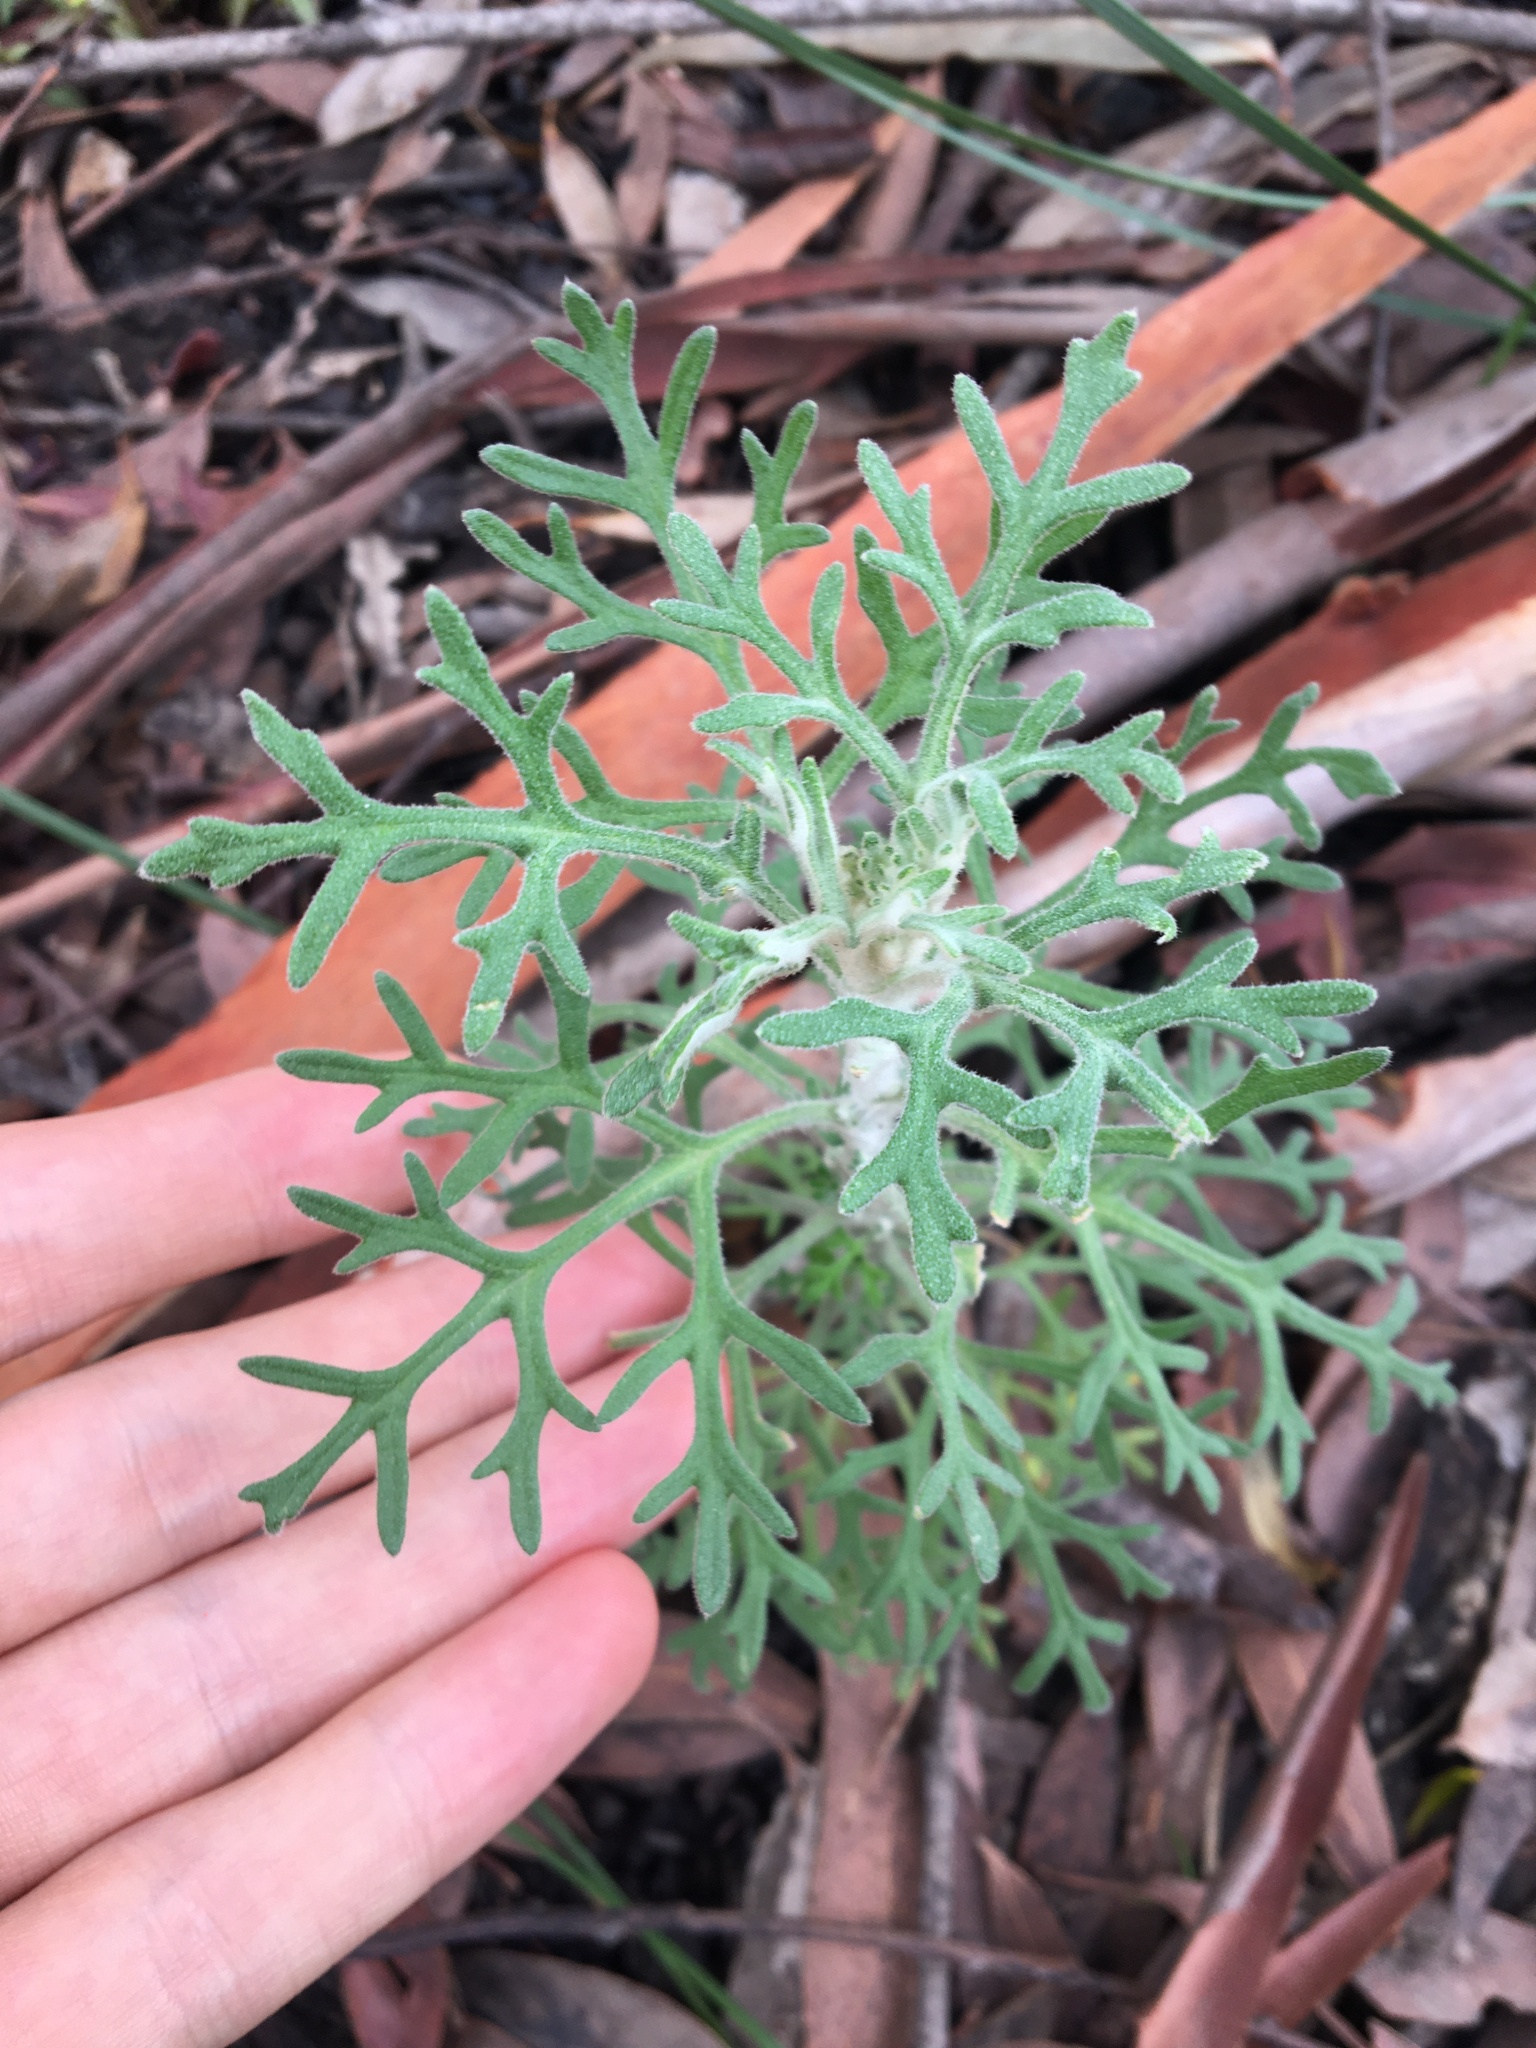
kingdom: Plantae
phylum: Tracheophyta
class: Magnoliopsida
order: Apiales
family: Apiaceae
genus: Actinotus
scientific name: Actinotus helianthi
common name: Flannel-flower
